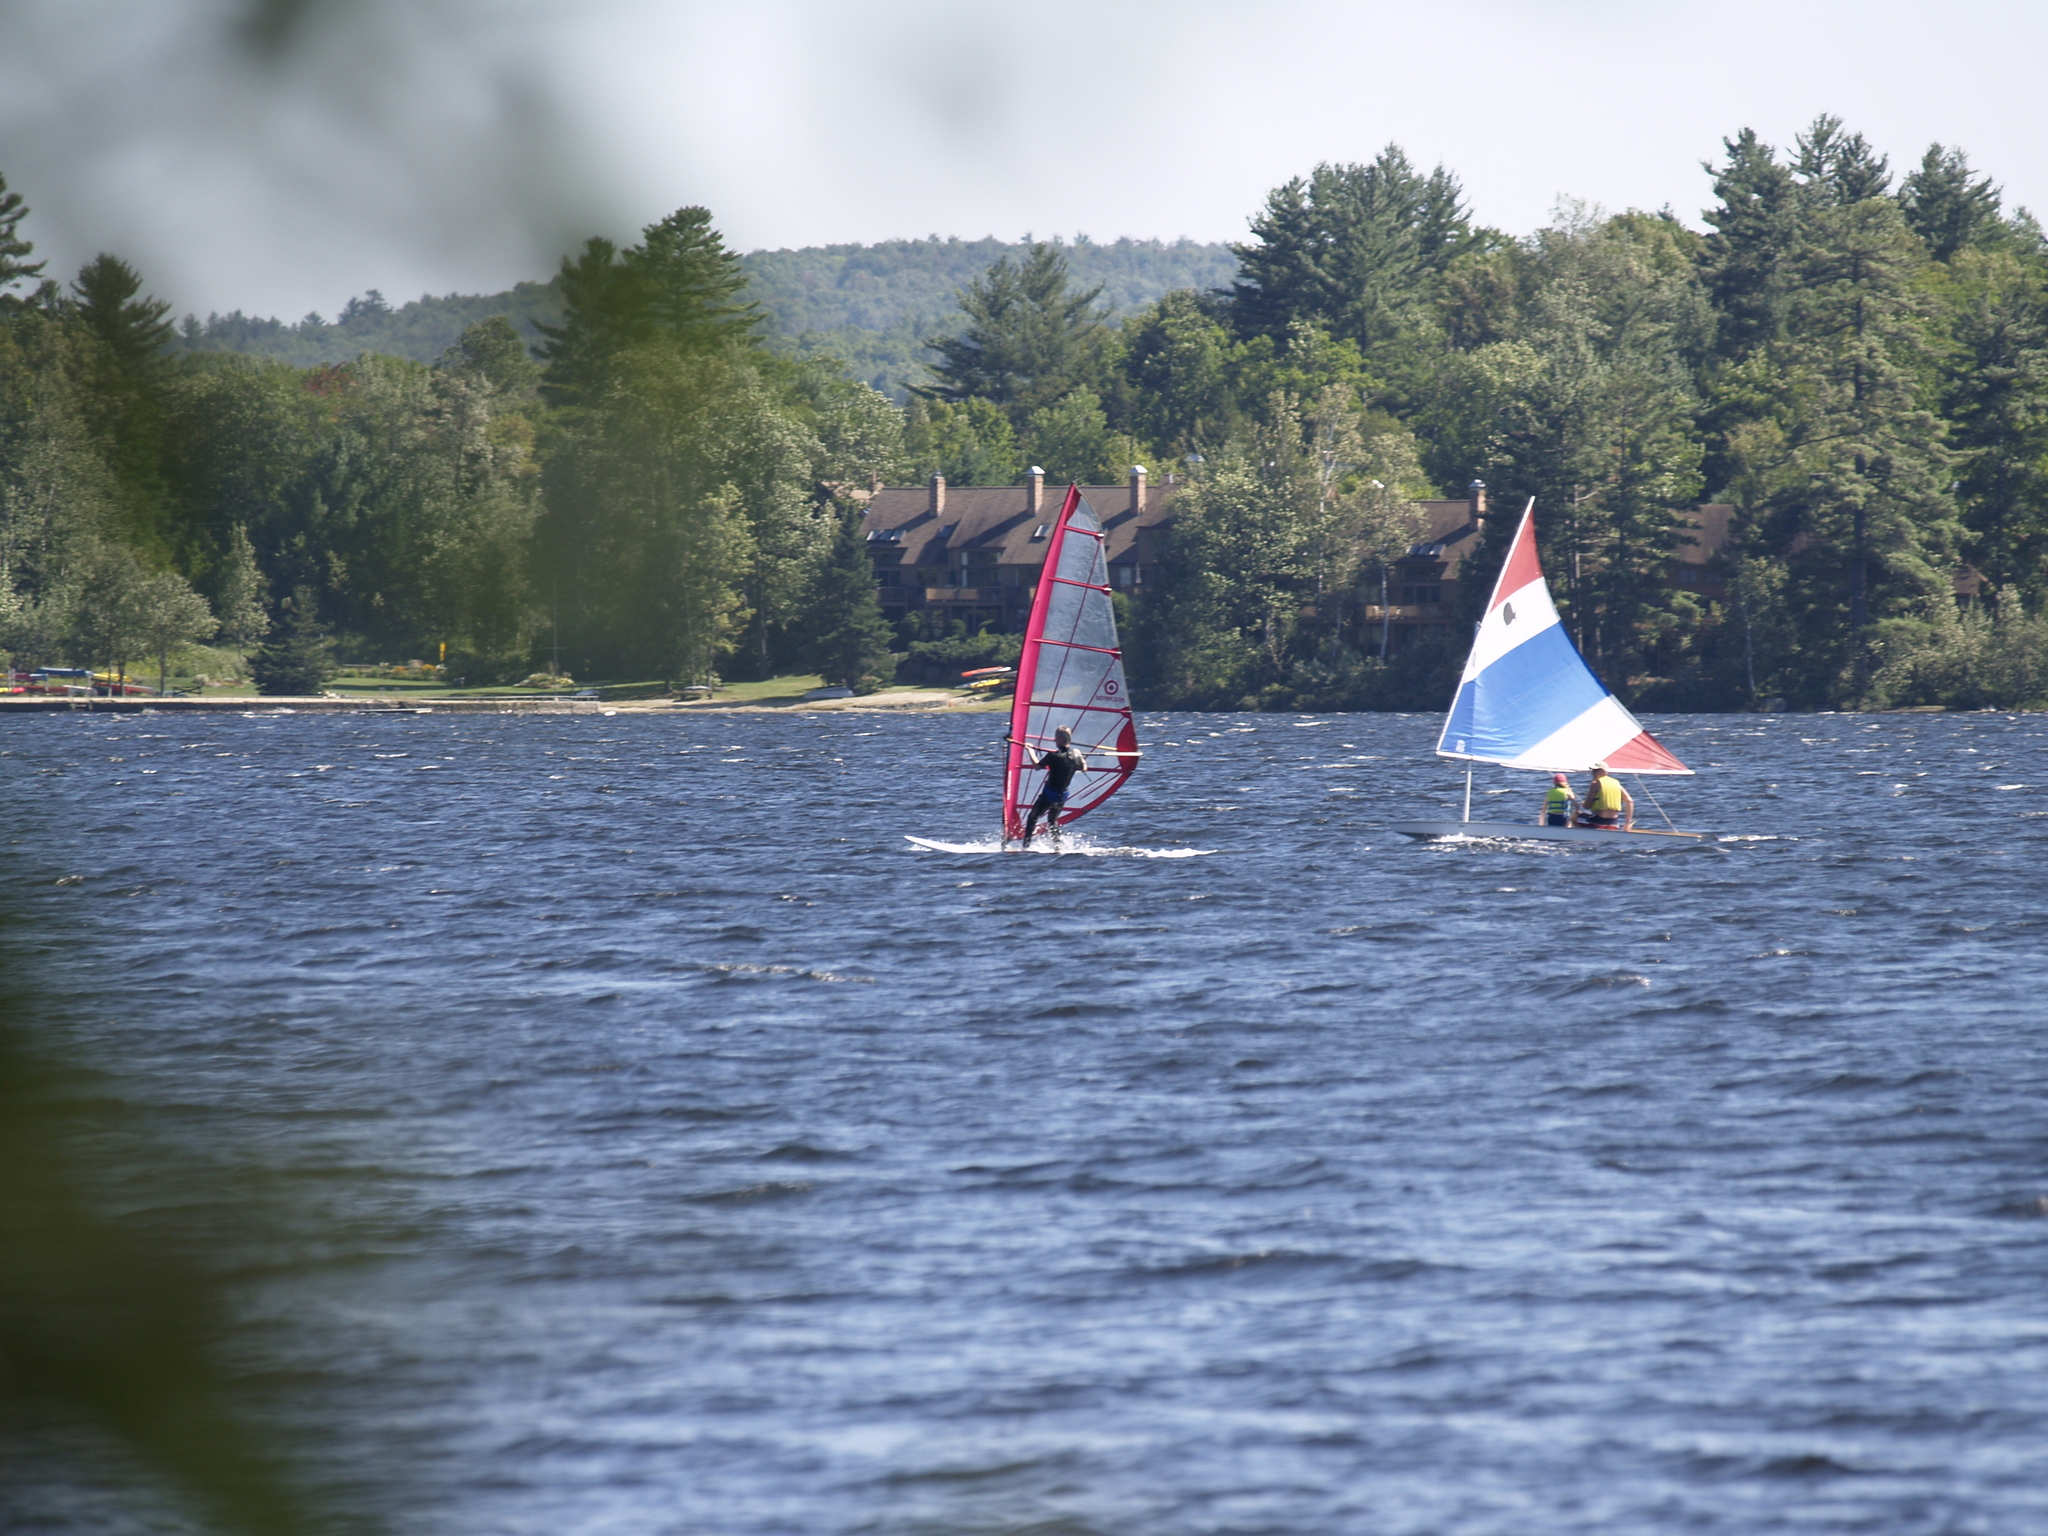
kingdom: Plantae
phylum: Tracheophyta
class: Pinopsida
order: Pinales
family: Pinaceae
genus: Pinus
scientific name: Pinus strobus
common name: Weymouth pine
